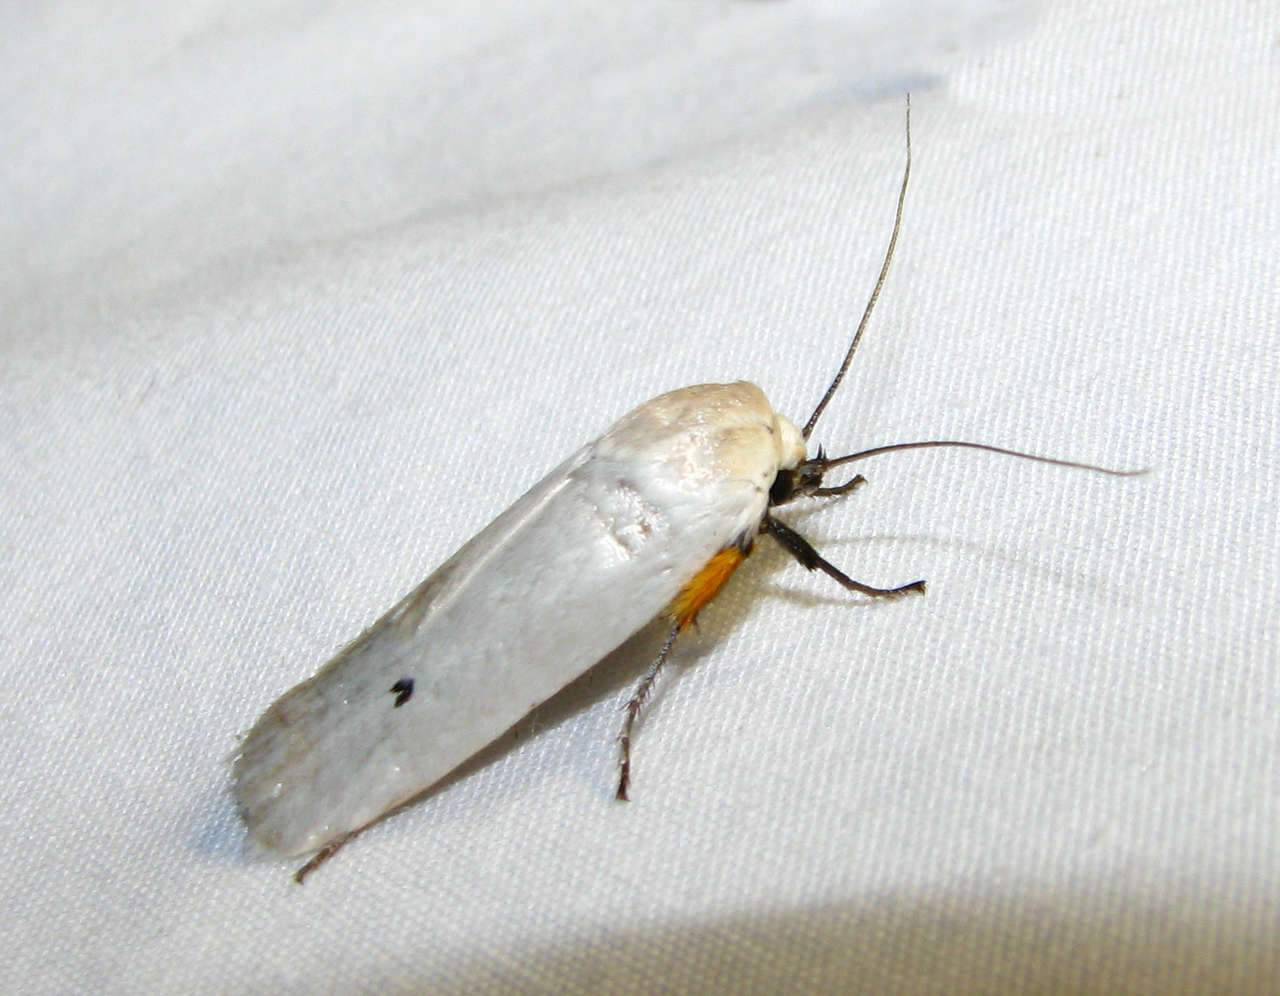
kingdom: Animalia
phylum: Arthropoda
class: Insecta
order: Lepidoptera
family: Xyloryctidae
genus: Maroga
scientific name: Maroga melanostigma
